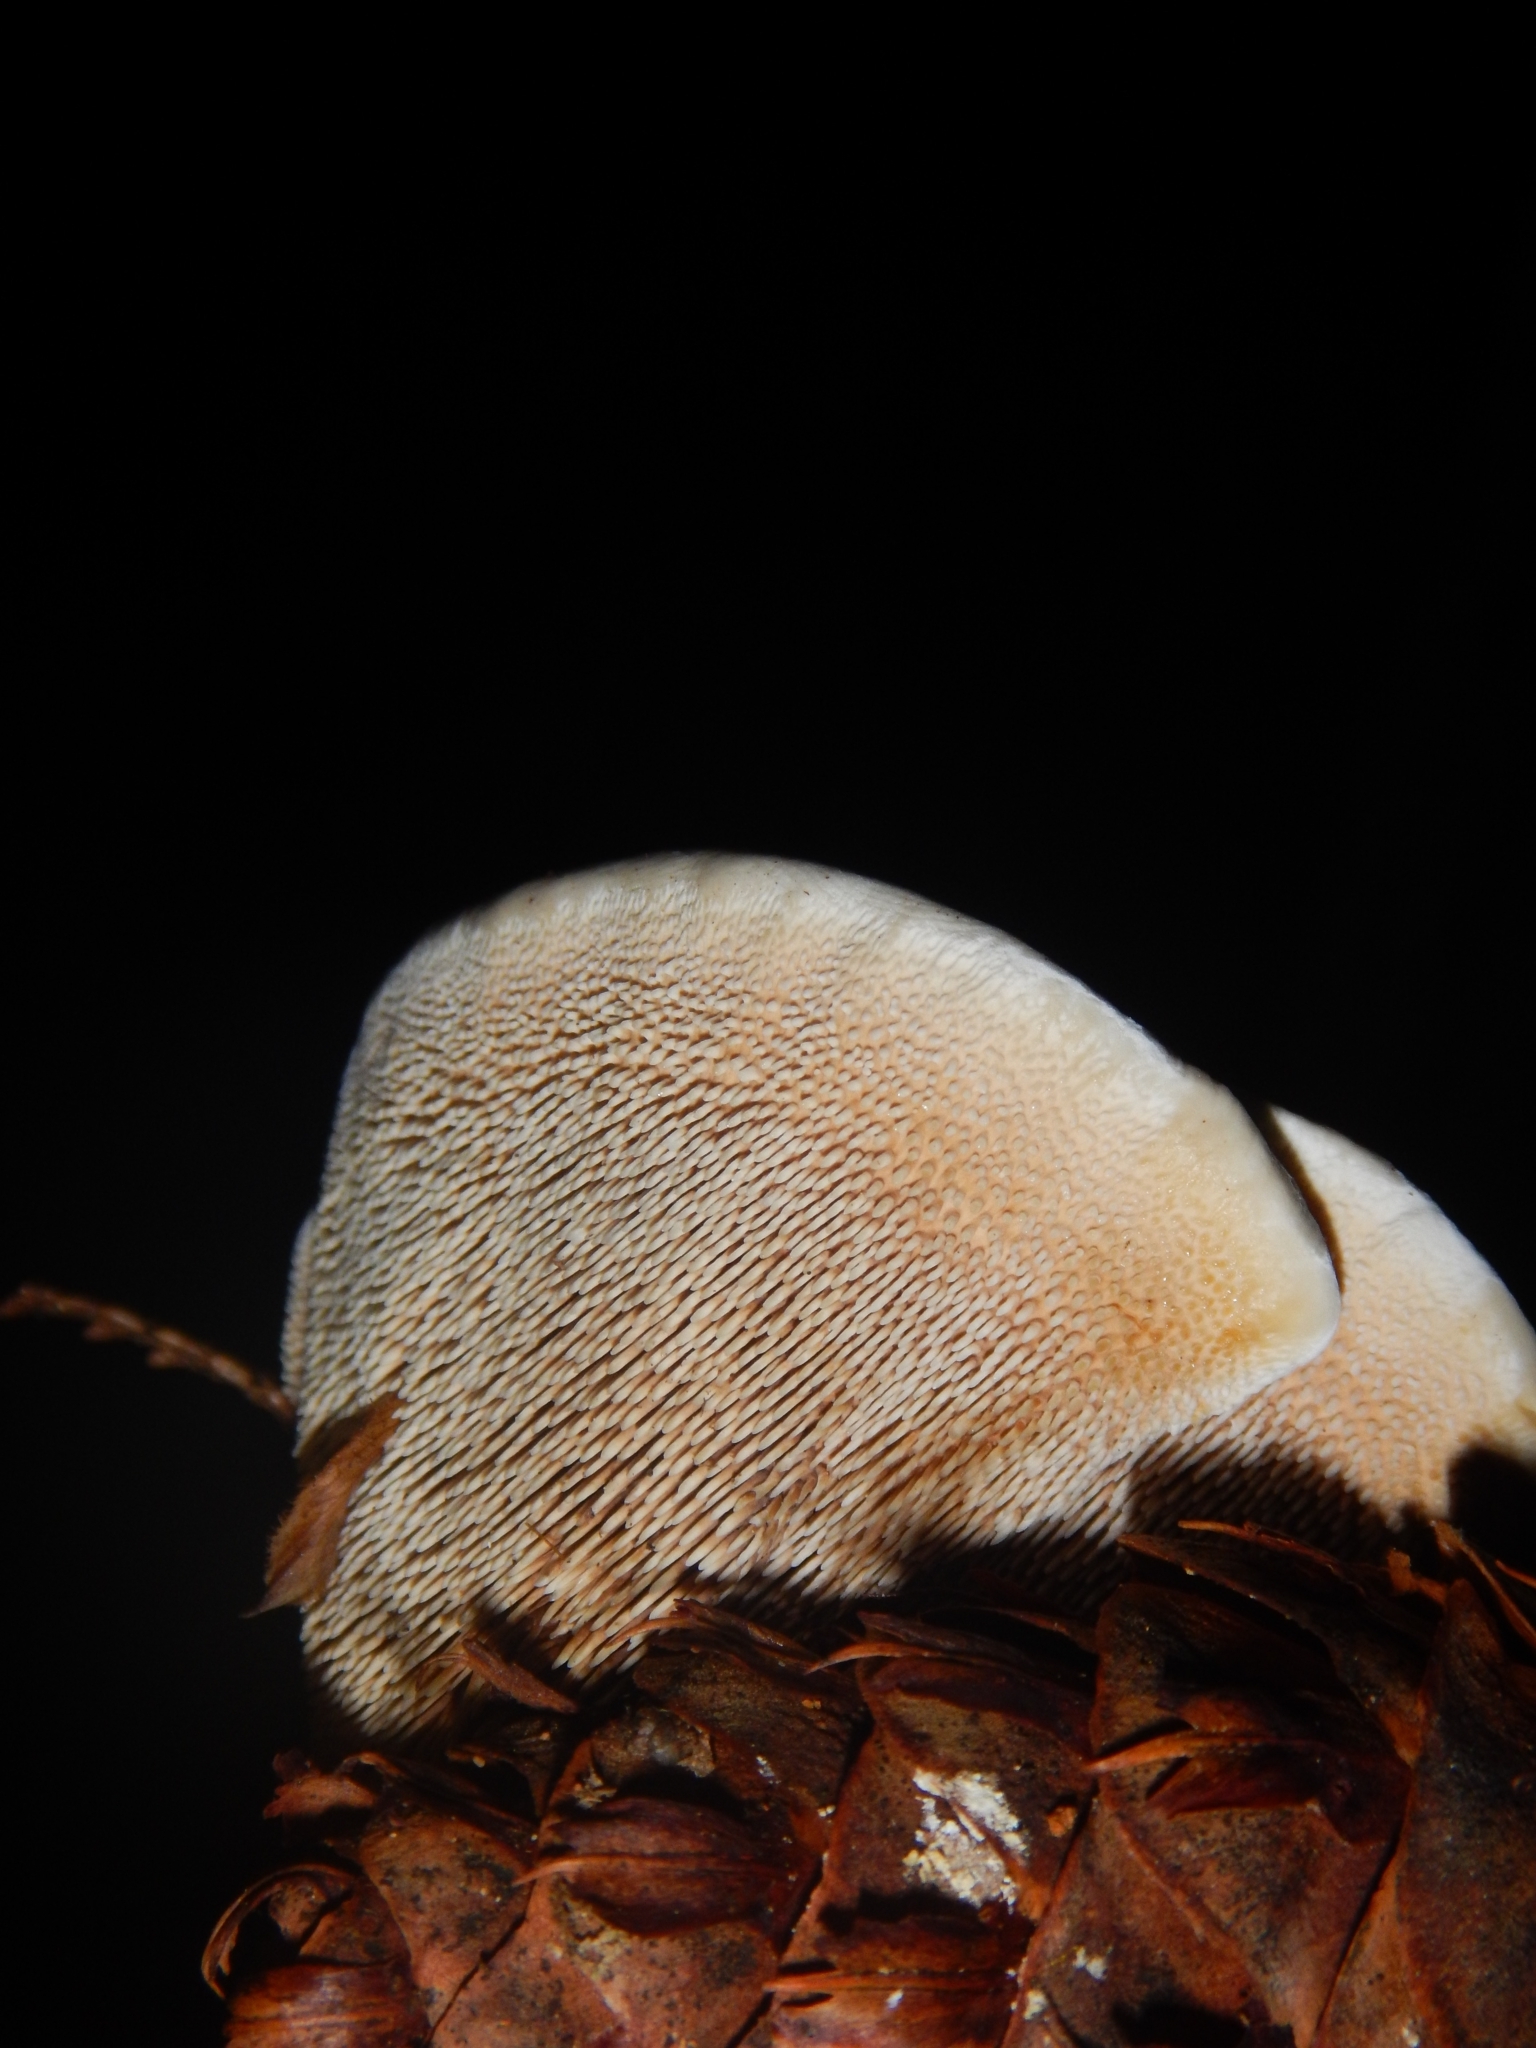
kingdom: Fungi
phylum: Basidiomycota
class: Agaricomycetes
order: Thelephorales
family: Bankeraceae
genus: Hydnellum
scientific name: Hydnellum aurantiacum
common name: Orange tooth
